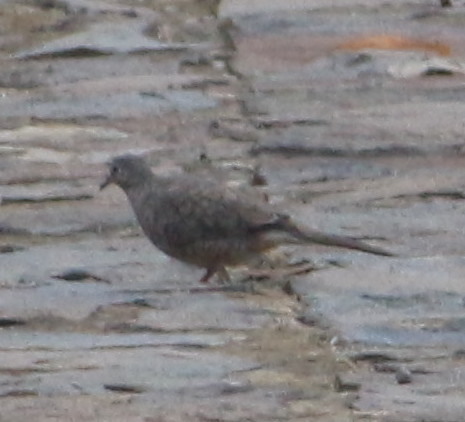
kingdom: Animalia
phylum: Chordata
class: Aves
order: Columbiformes
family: Columbidae
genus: Columbina
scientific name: Columbina inca
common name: Inca dove
